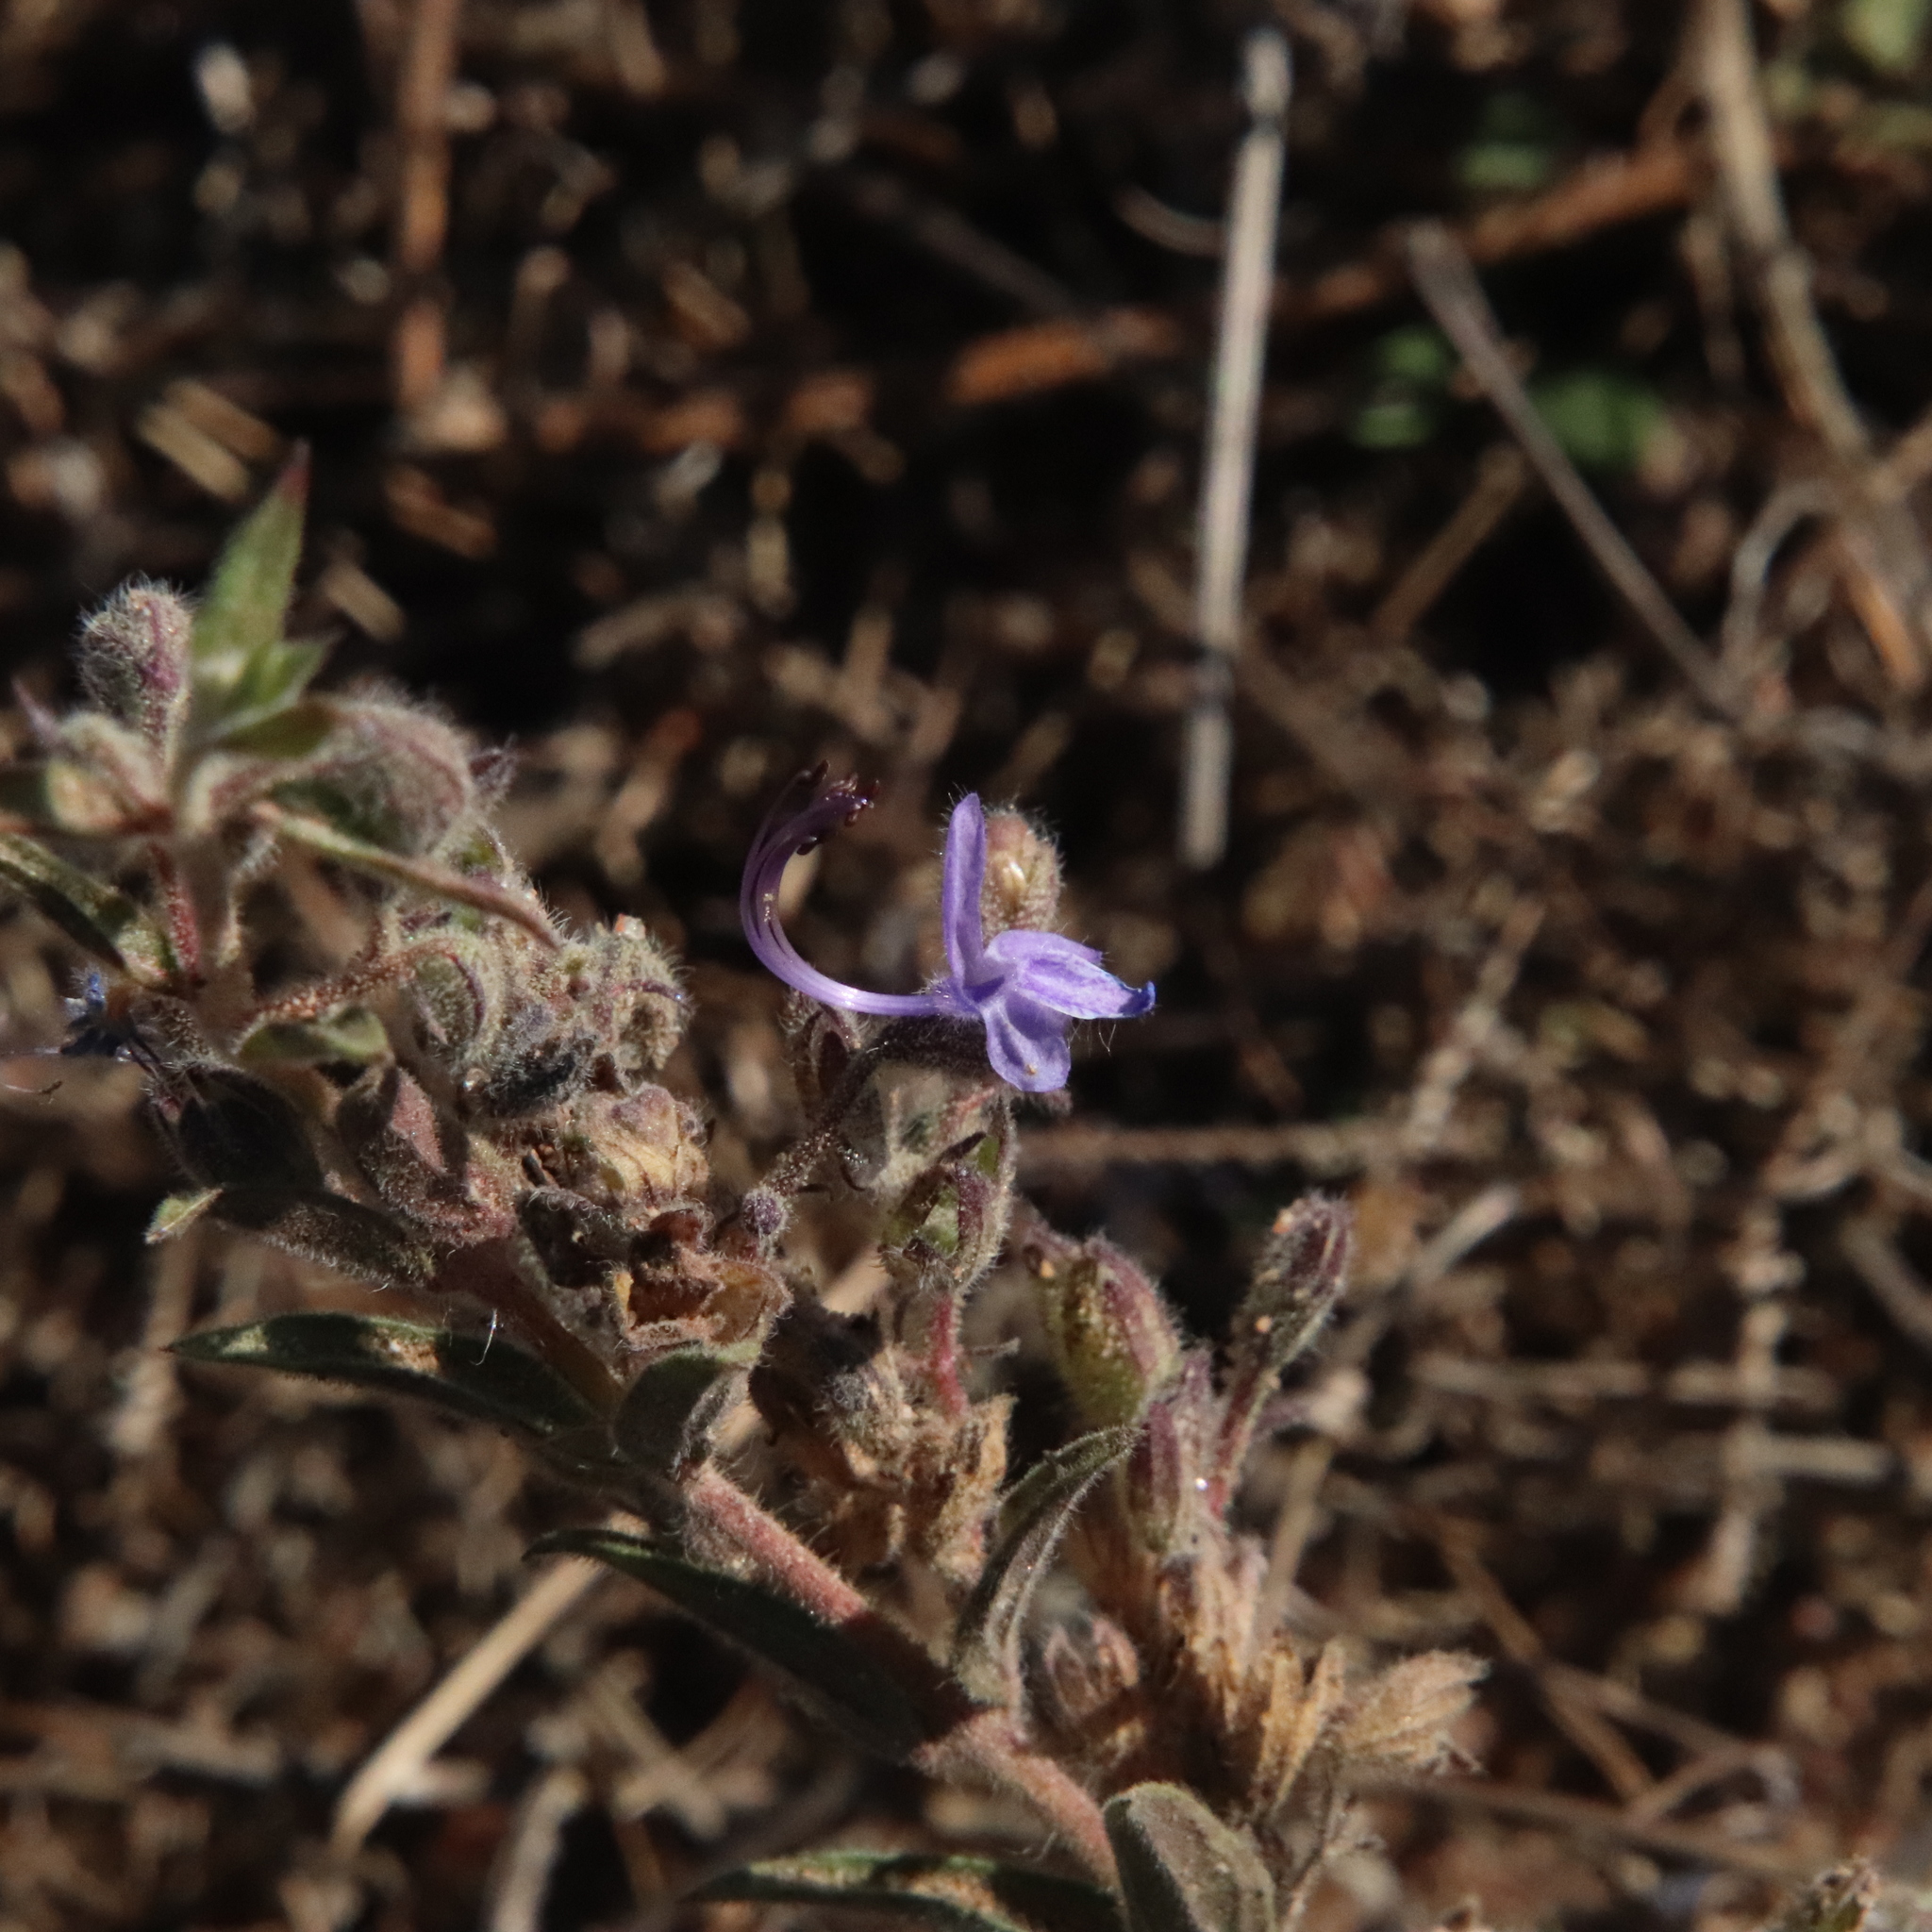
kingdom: Plantae
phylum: Tracheophyta
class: Magnoliopsida
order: Lamiales
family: Lamiaceae
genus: Trichostema
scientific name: Trichostema lanceolatum
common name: Vinegar-weed
